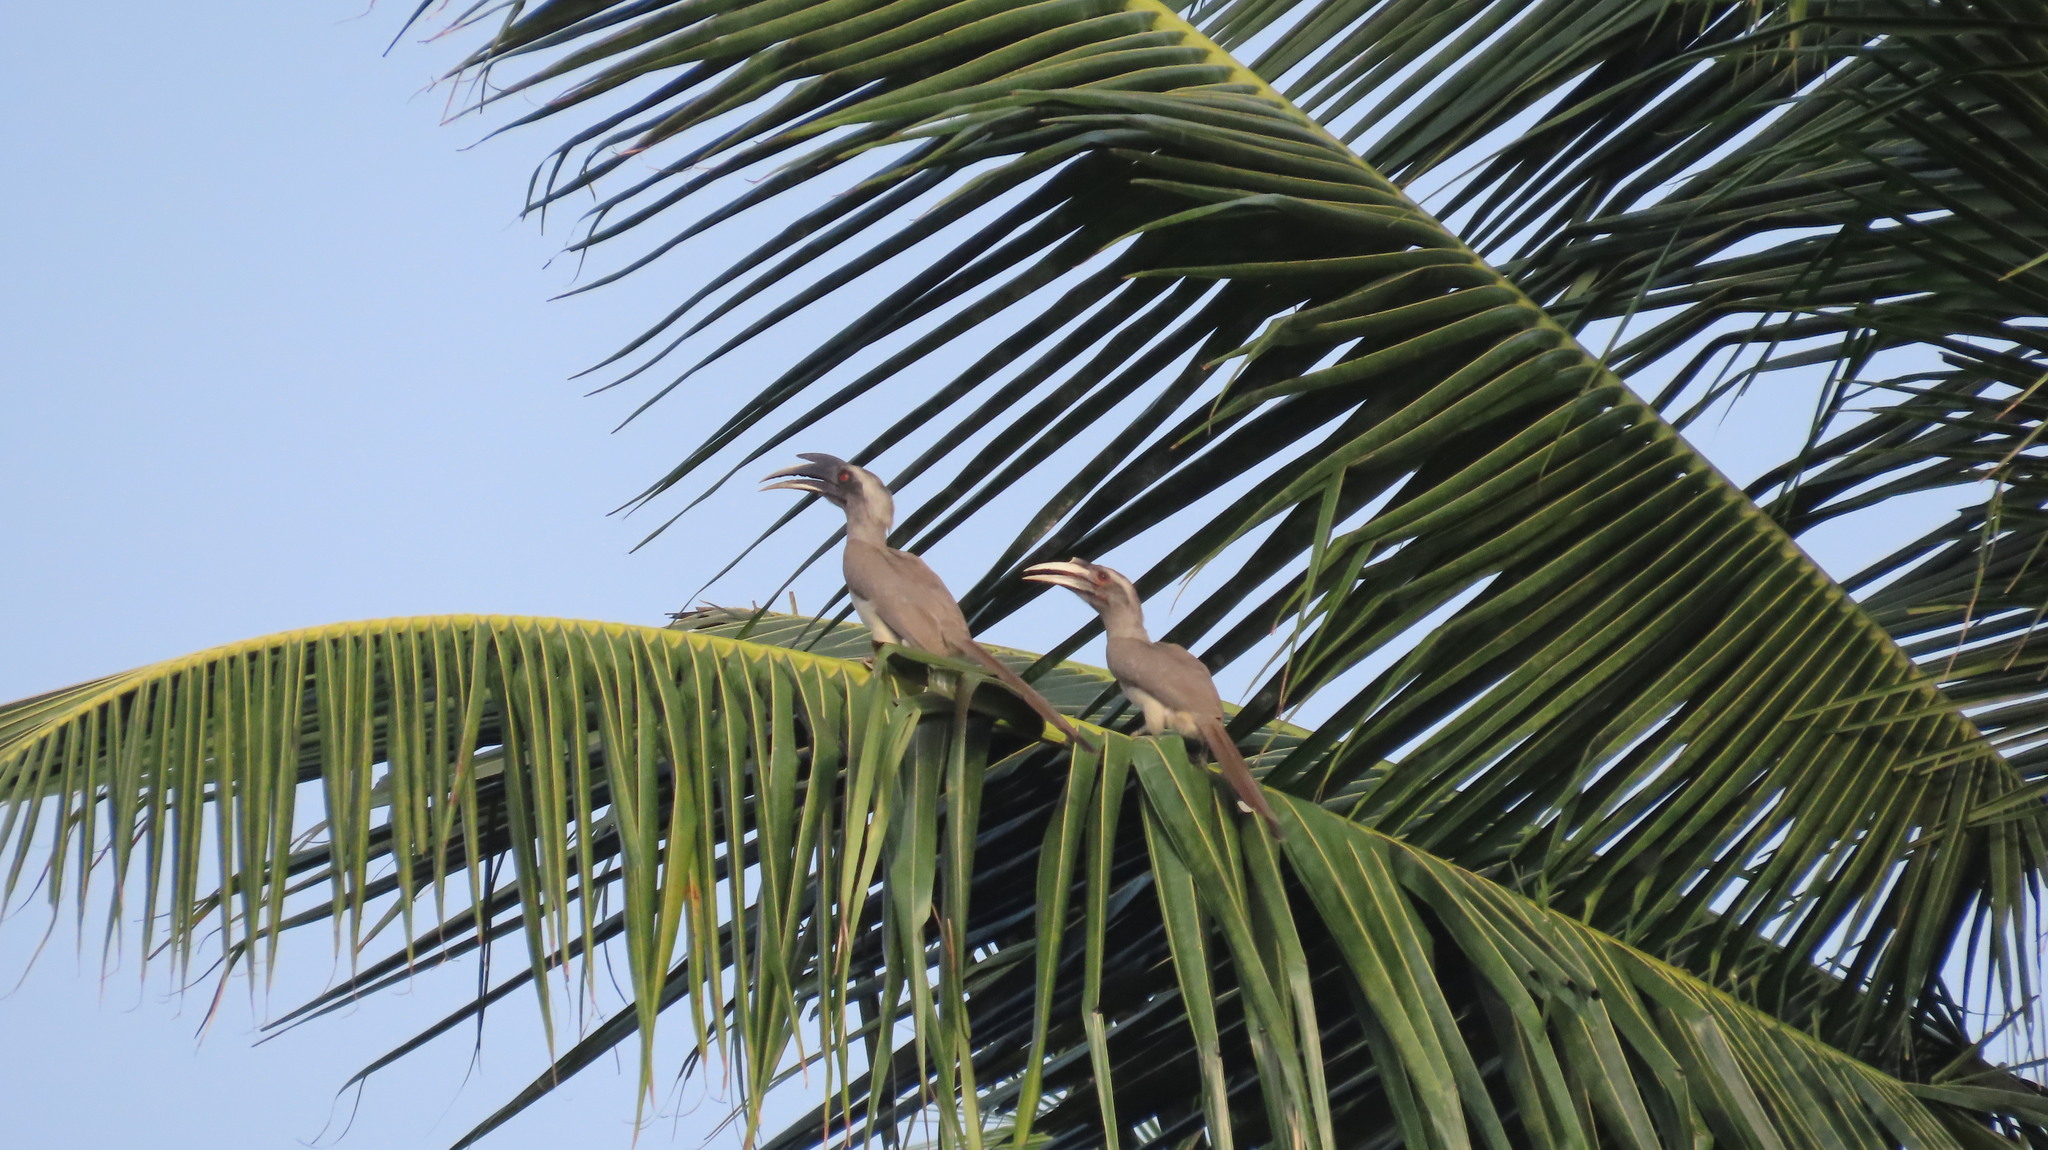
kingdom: Animalia
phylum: Chordata
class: Aves
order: Bucerotiformes
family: Bucerotidae
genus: Ocyceros
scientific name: Ocyceros birostris
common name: Indian grey hornbill
